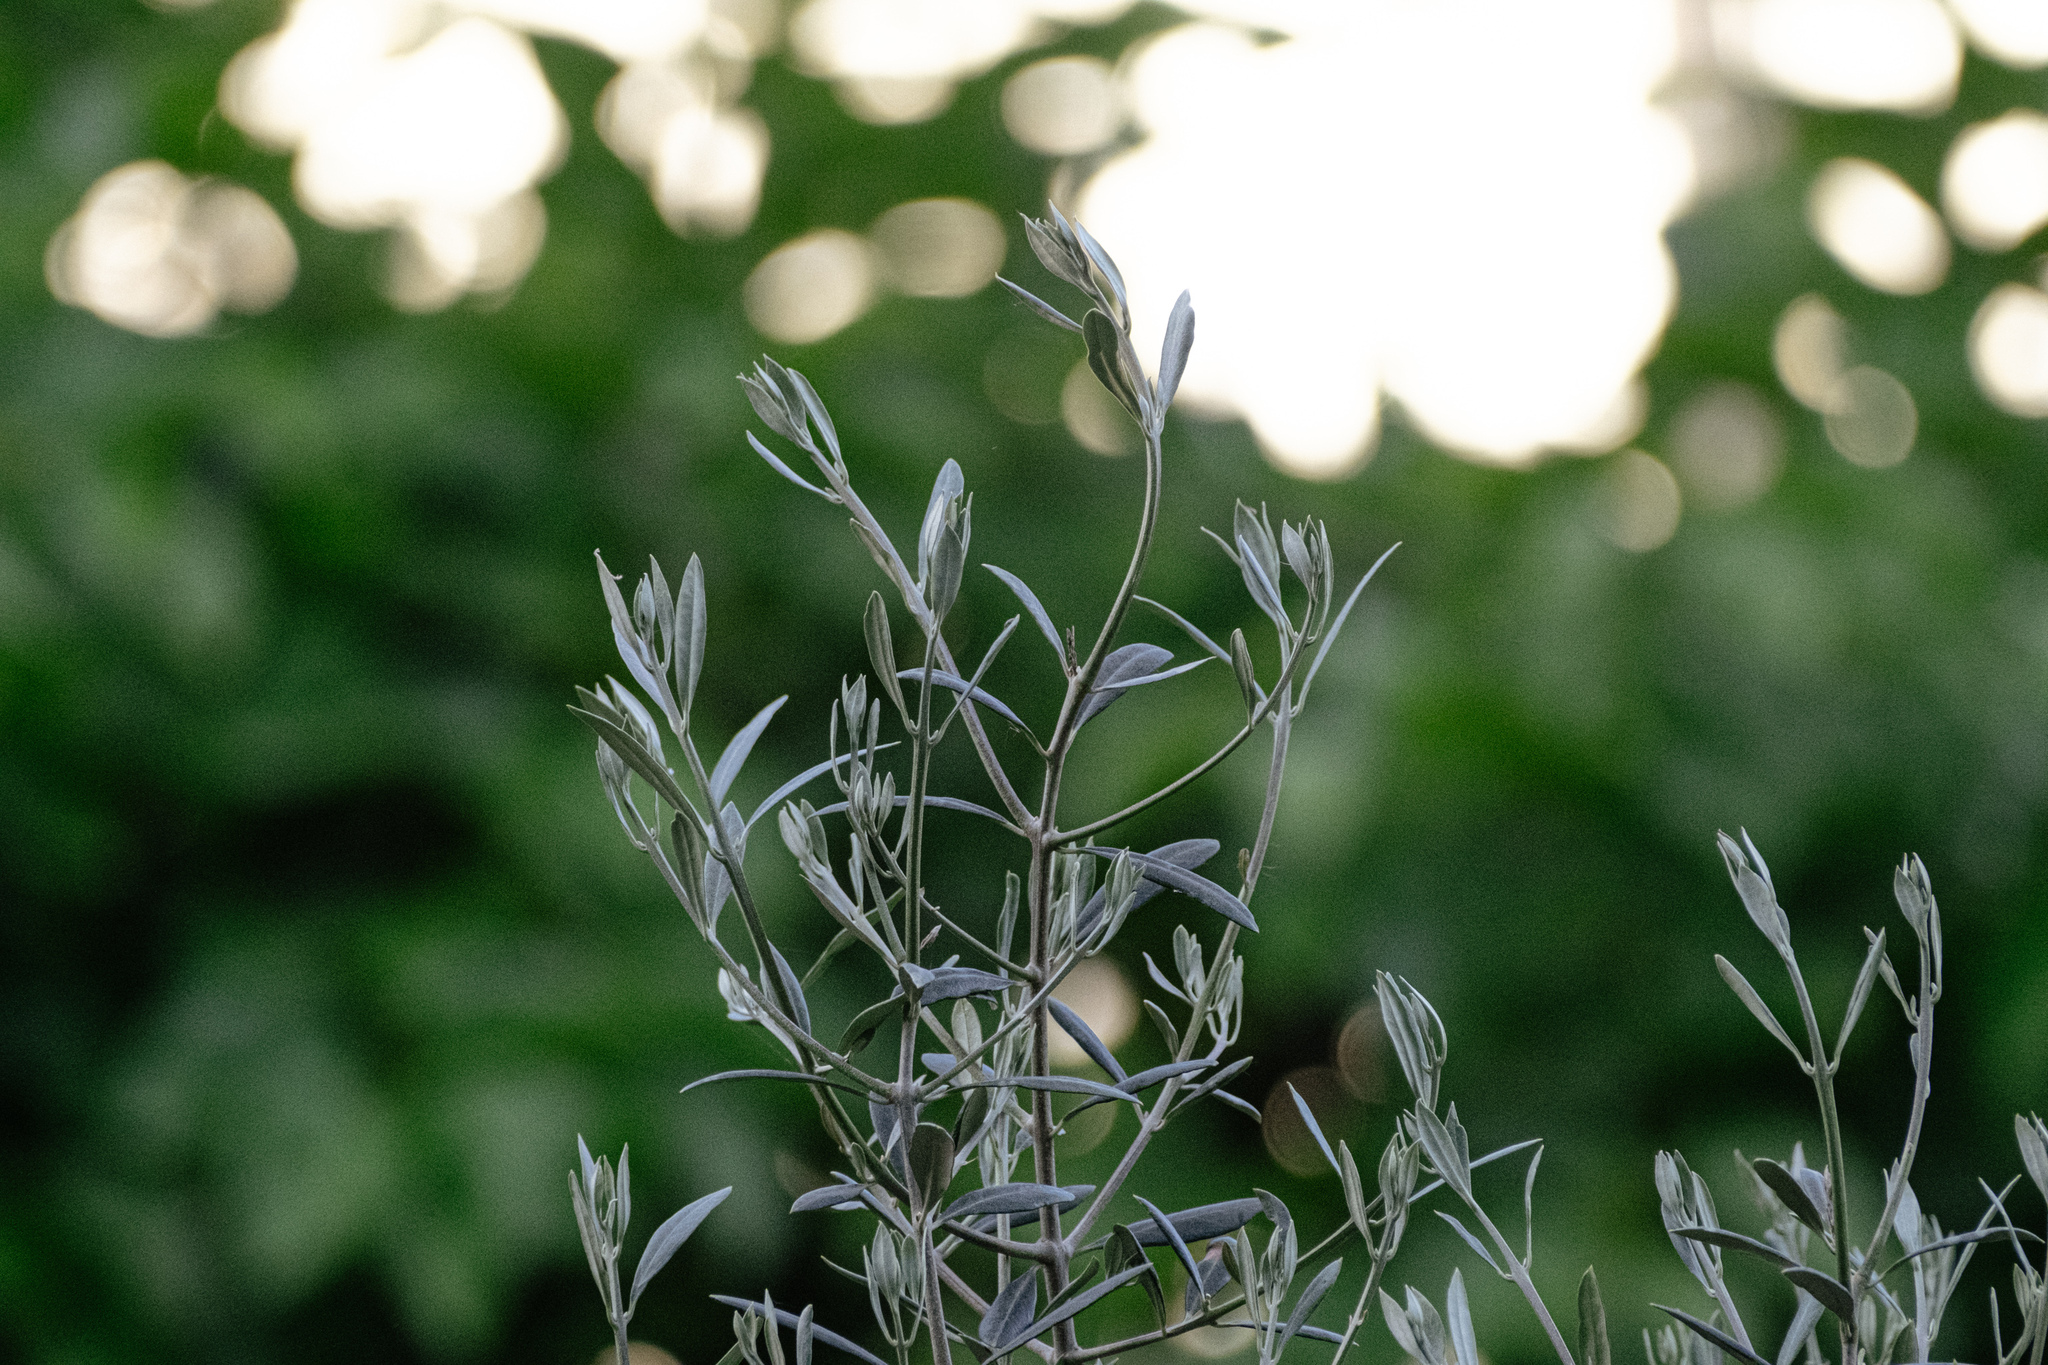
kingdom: Plantae
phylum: Tracheophyta
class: Magnoliopsida
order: Lamiales
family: Oleaceae
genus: Olea
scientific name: Olea europaea
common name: Olive
